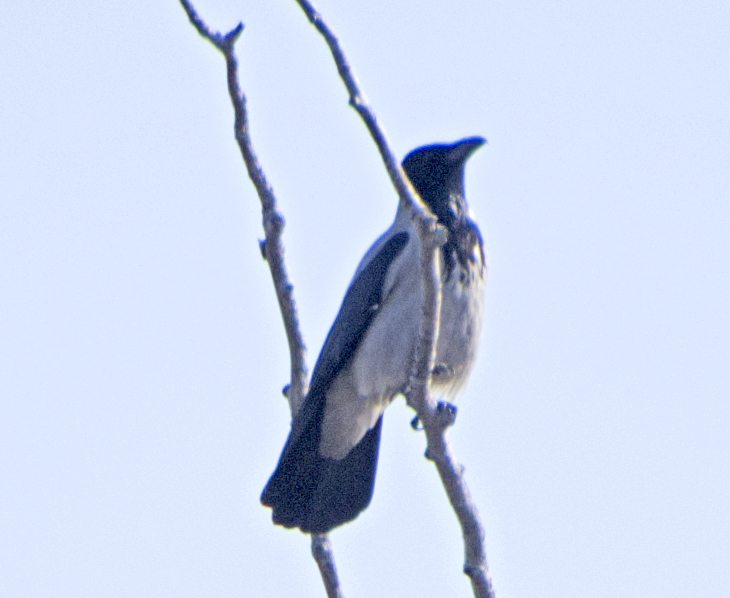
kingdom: Animalia
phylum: Chordata
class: Aves
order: Passeriformes
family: Corvidae
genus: Corvus
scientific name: Corvus cornix
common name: Hooded crow
